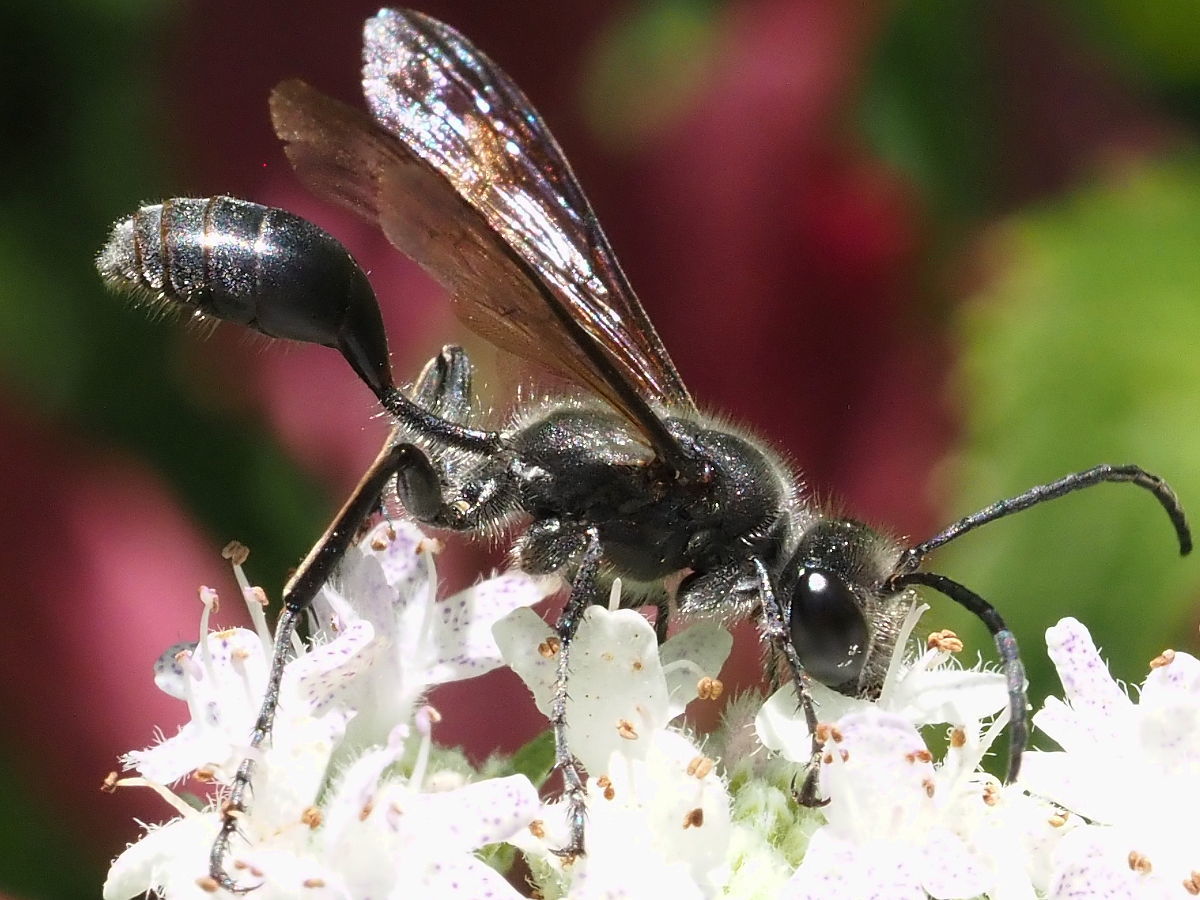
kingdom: Animalia
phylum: Arthropoda
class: Insecta
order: Hymenoptera
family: Sphecidae
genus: Isodontia
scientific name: Isodontia mexicana
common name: Mud dauber
